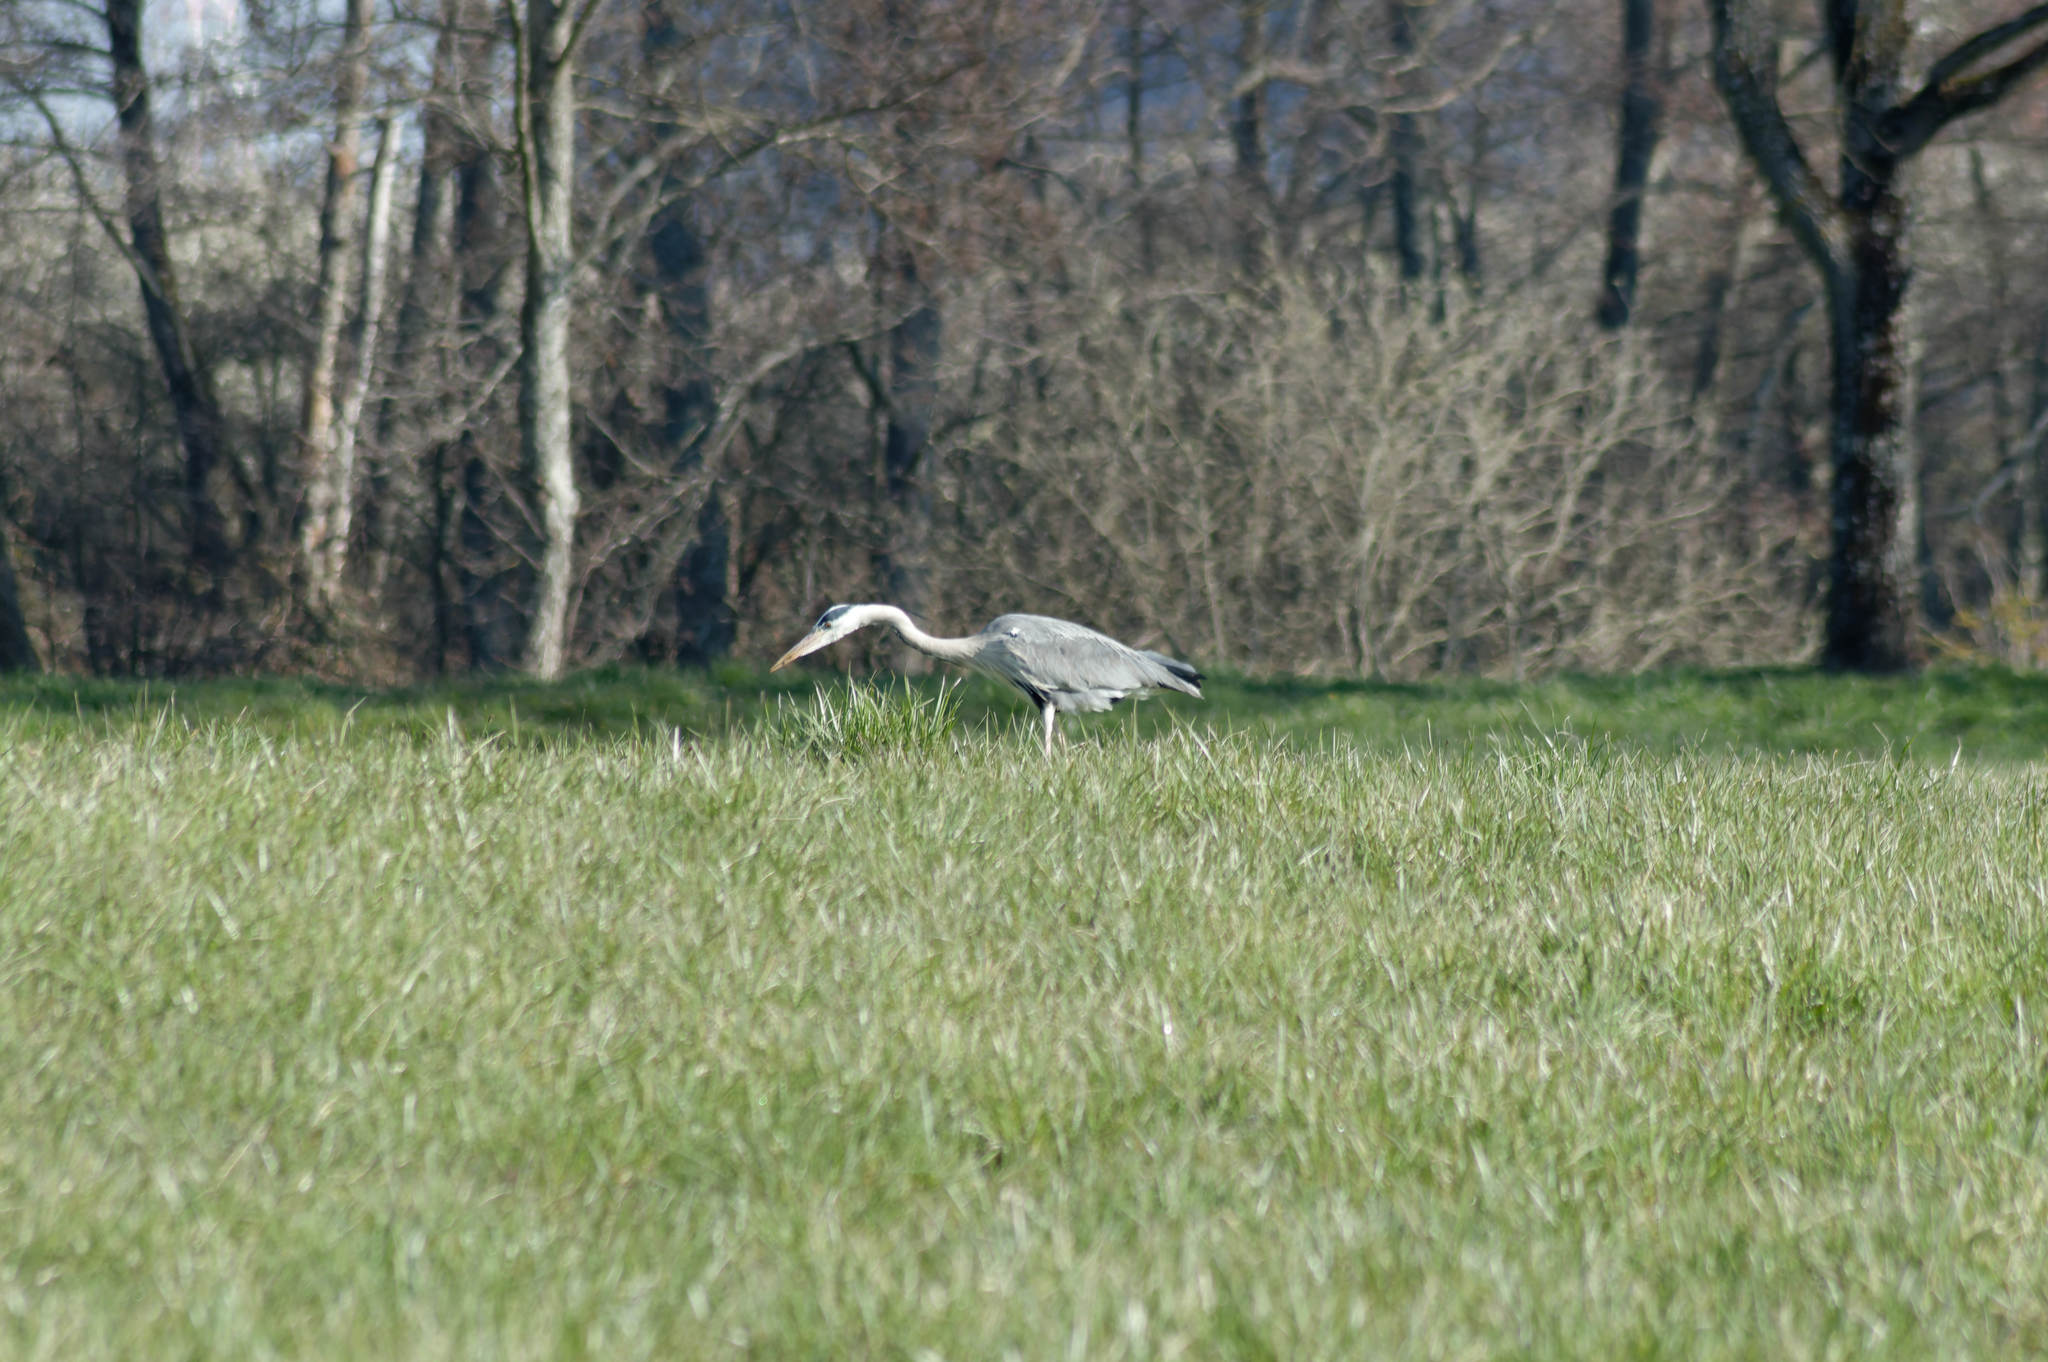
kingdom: Animalia
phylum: Chordata
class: Aves
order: Pelecaniformes
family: Ardeidae
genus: Ardea
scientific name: Ardea cinerea
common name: Grey heron
